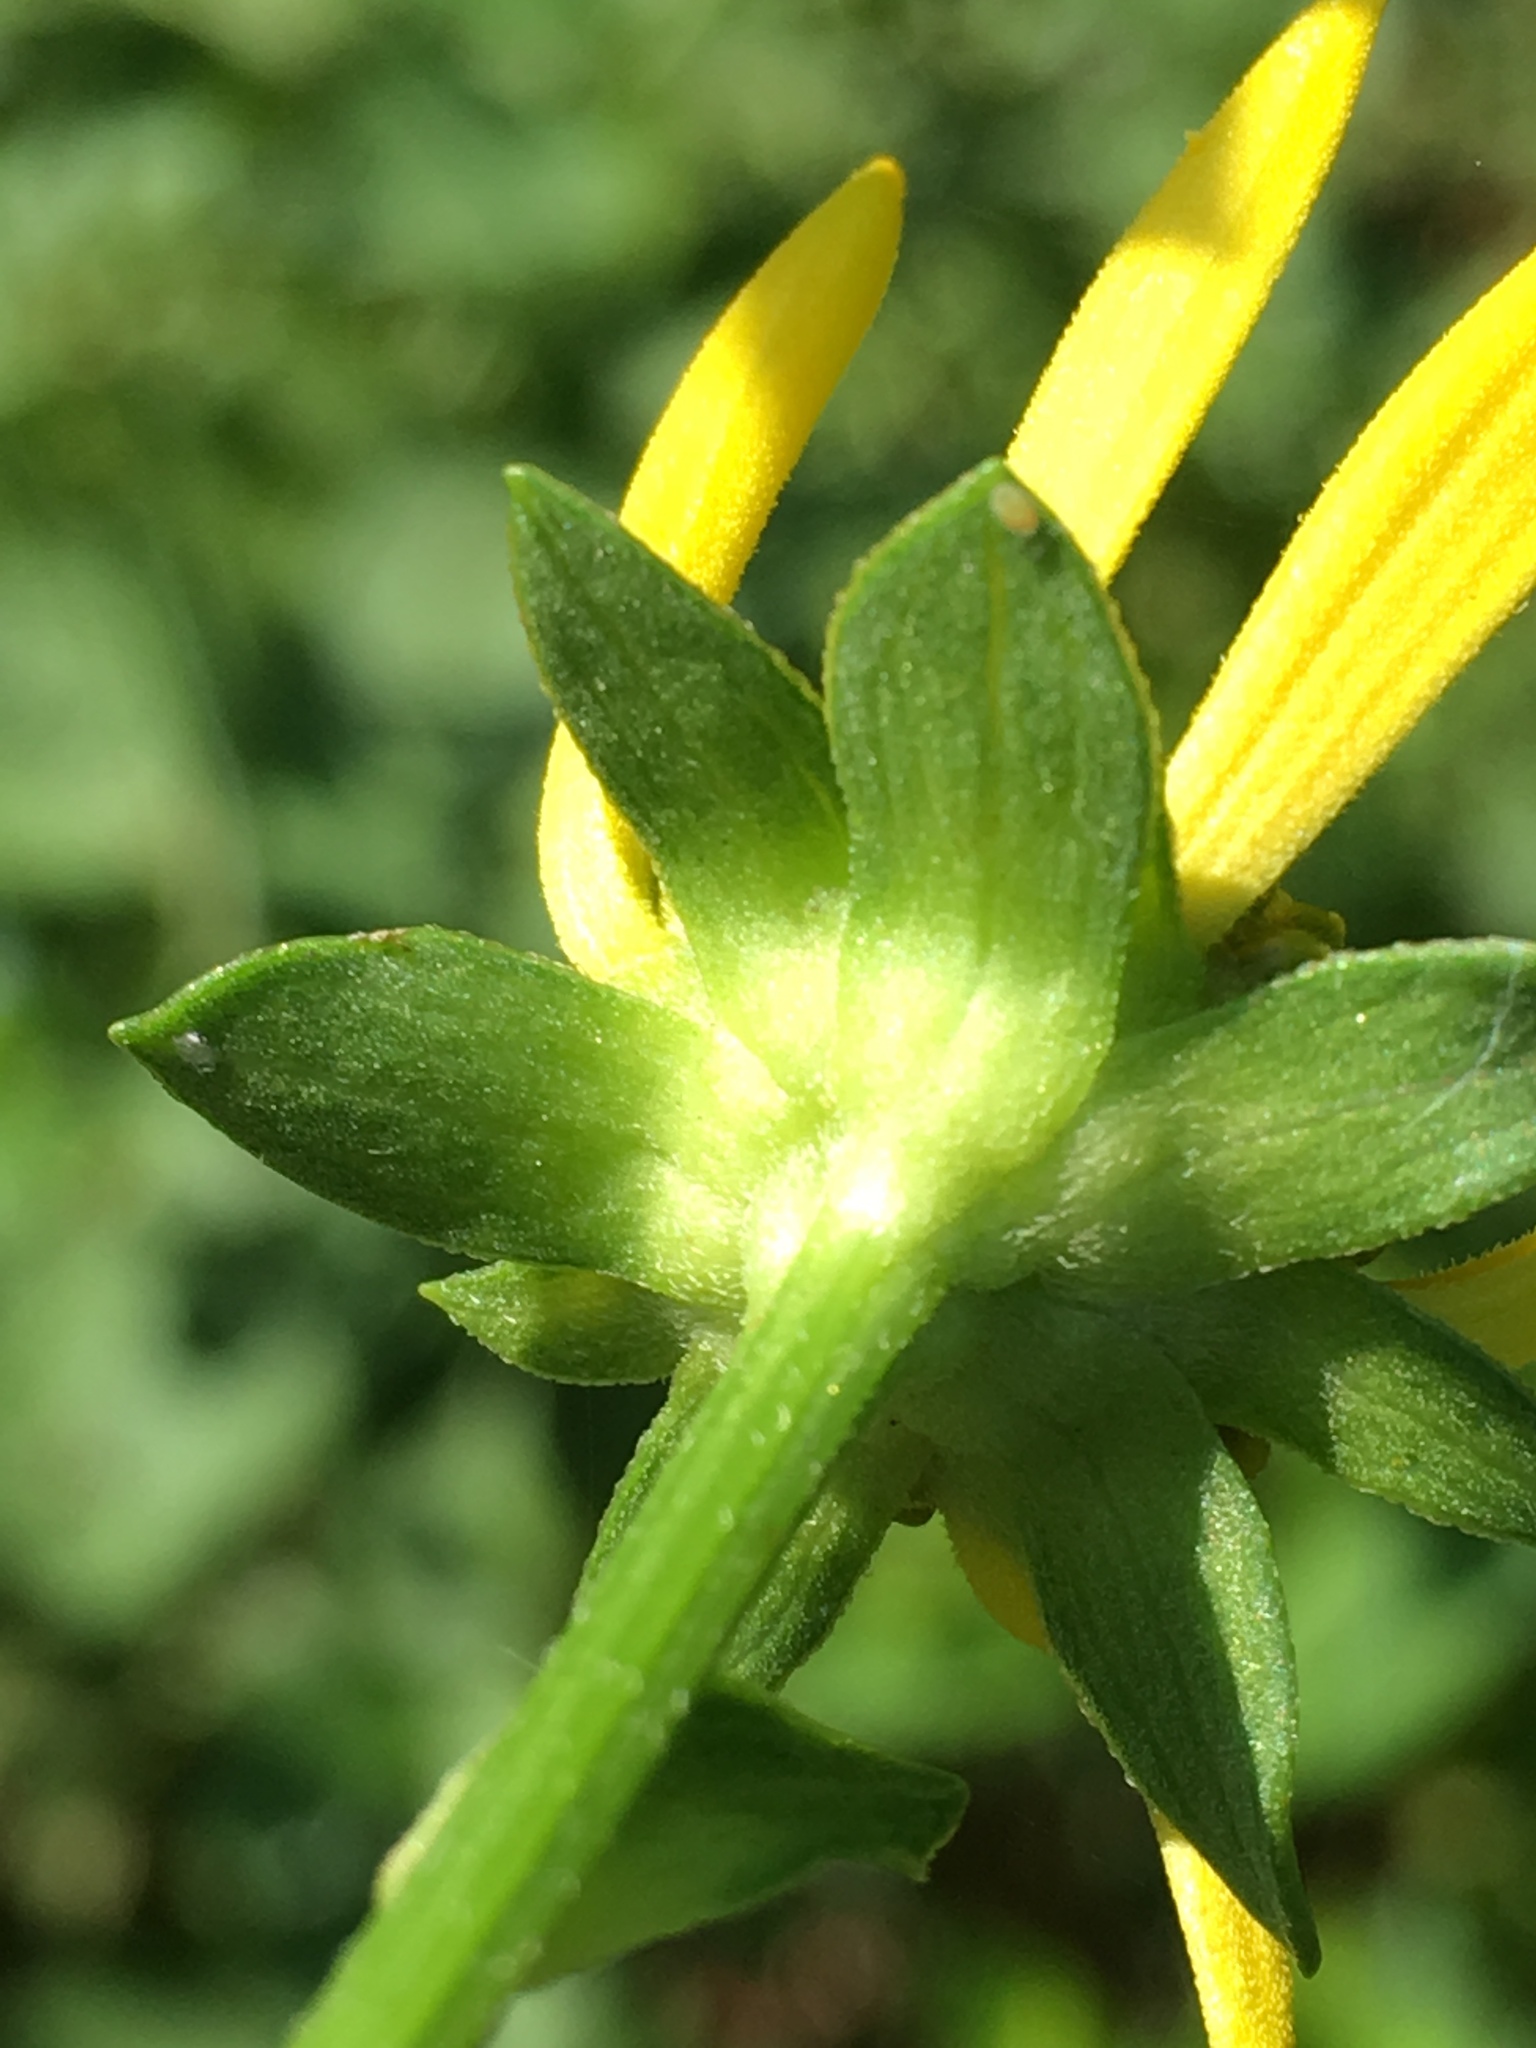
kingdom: Plantae
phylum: Tracheophyta
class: Magnoliopsida
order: Asterales
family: Asteraceae
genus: Rudbeckia
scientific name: Rudbeckia laciniata
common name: Coneflower
